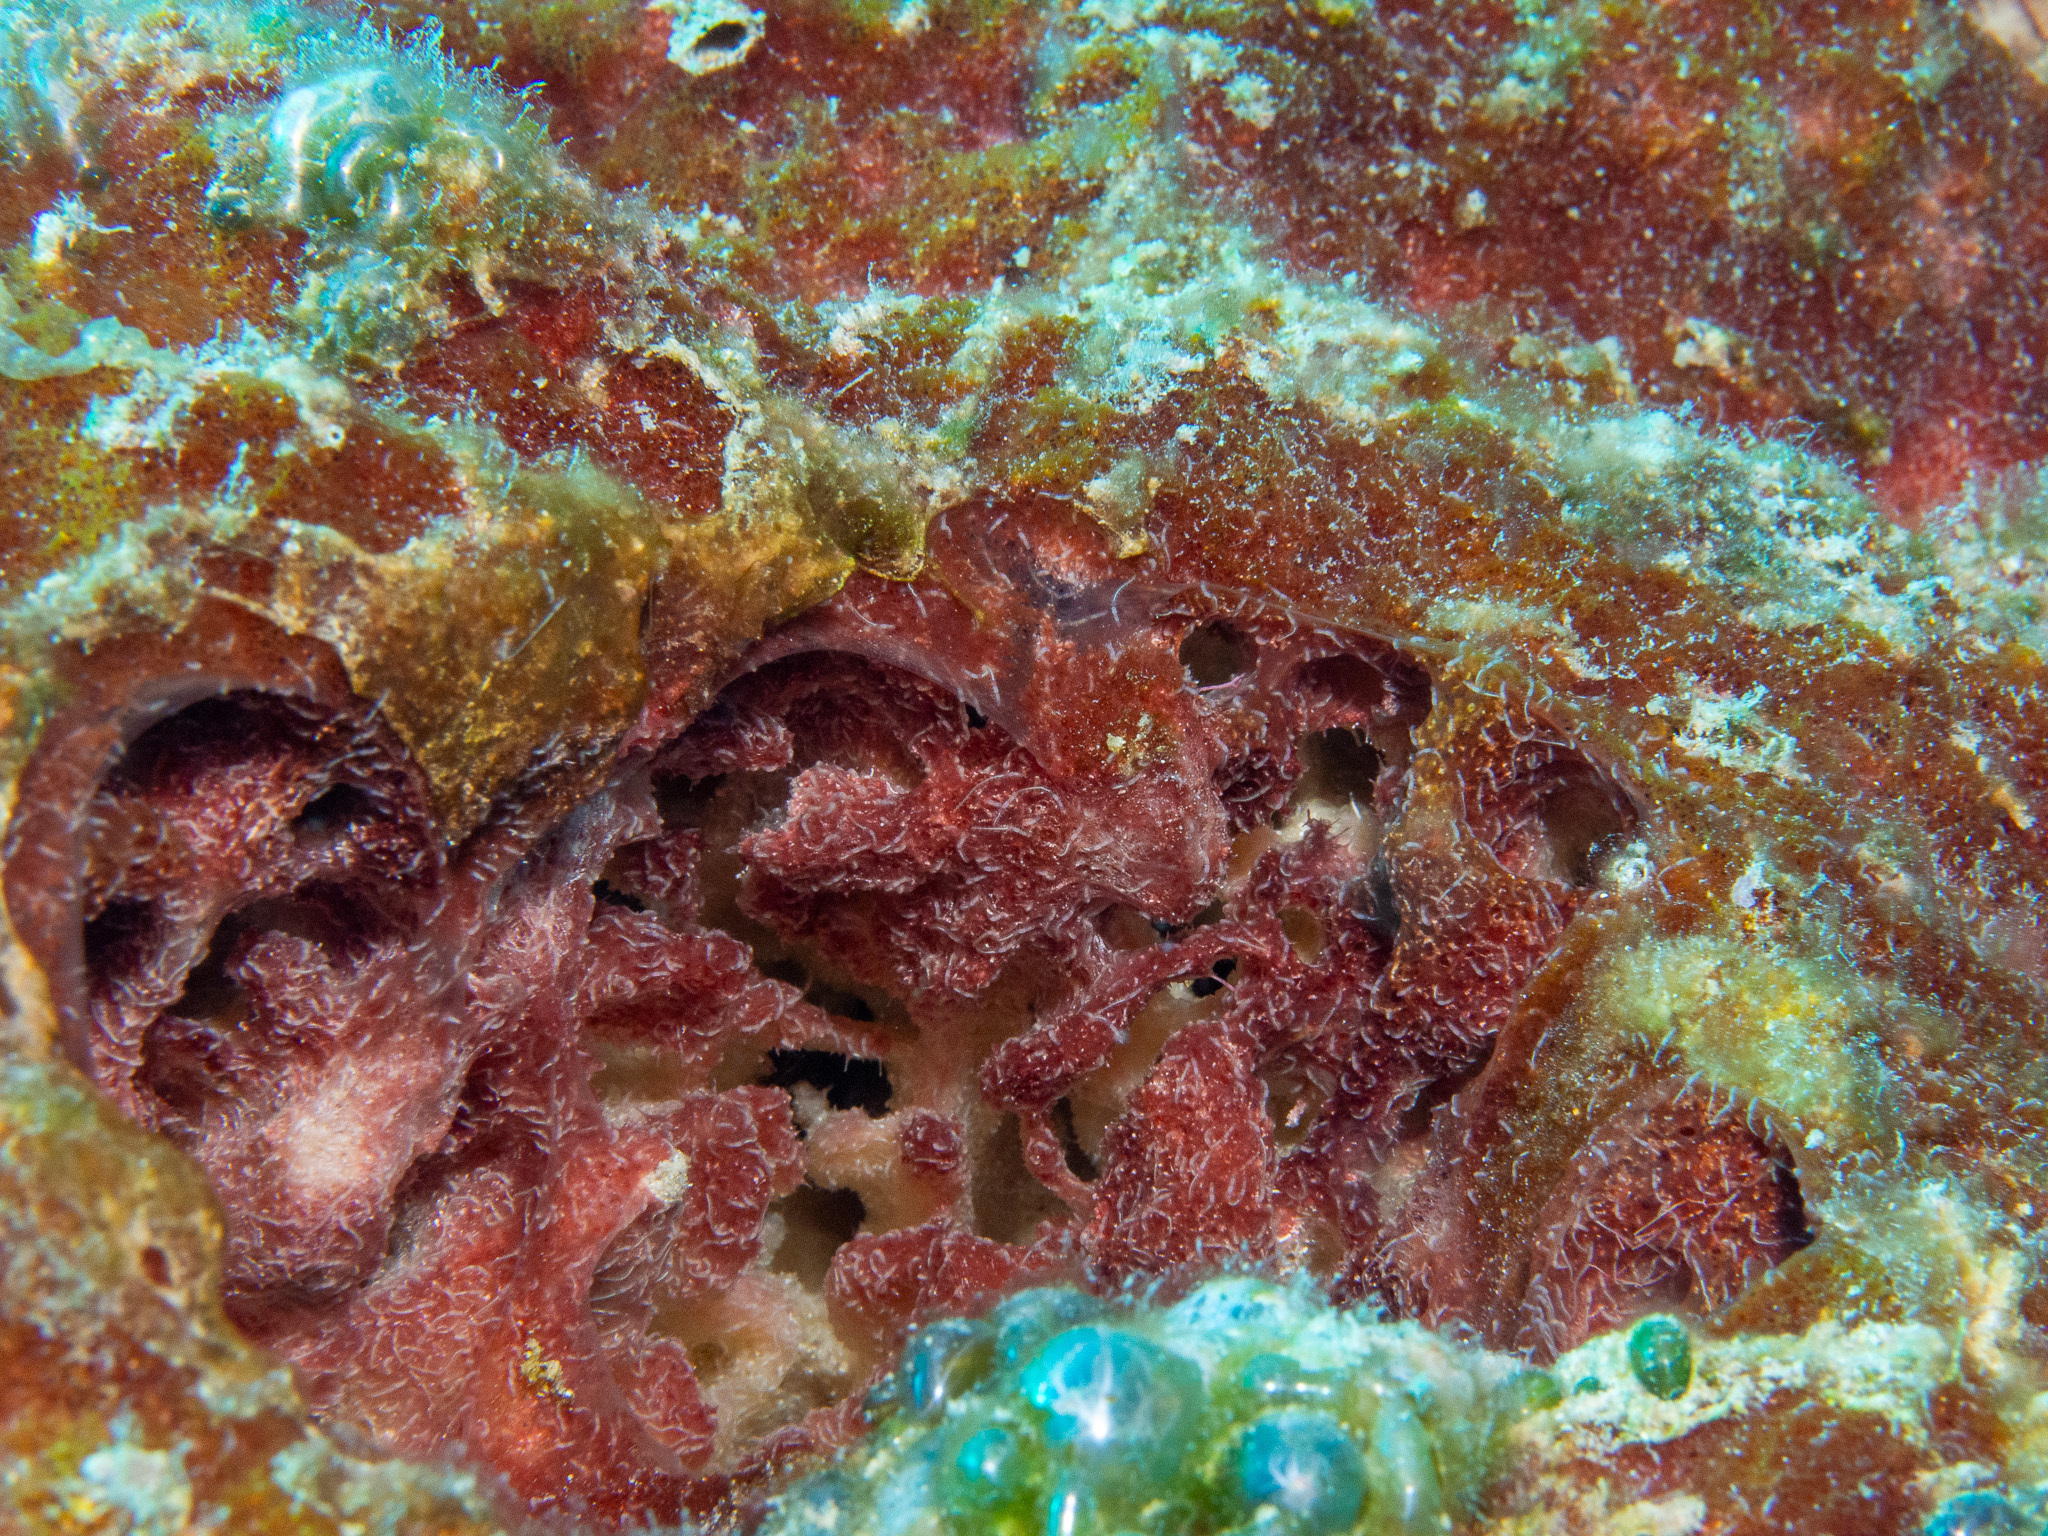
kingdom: Animalia
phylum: Porifera
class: Demospongiae
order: Biemnida
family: Biemnidae
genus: Neofibularia
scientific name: Neofibularia nolitangere
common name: Do-not-touch-me sponge
